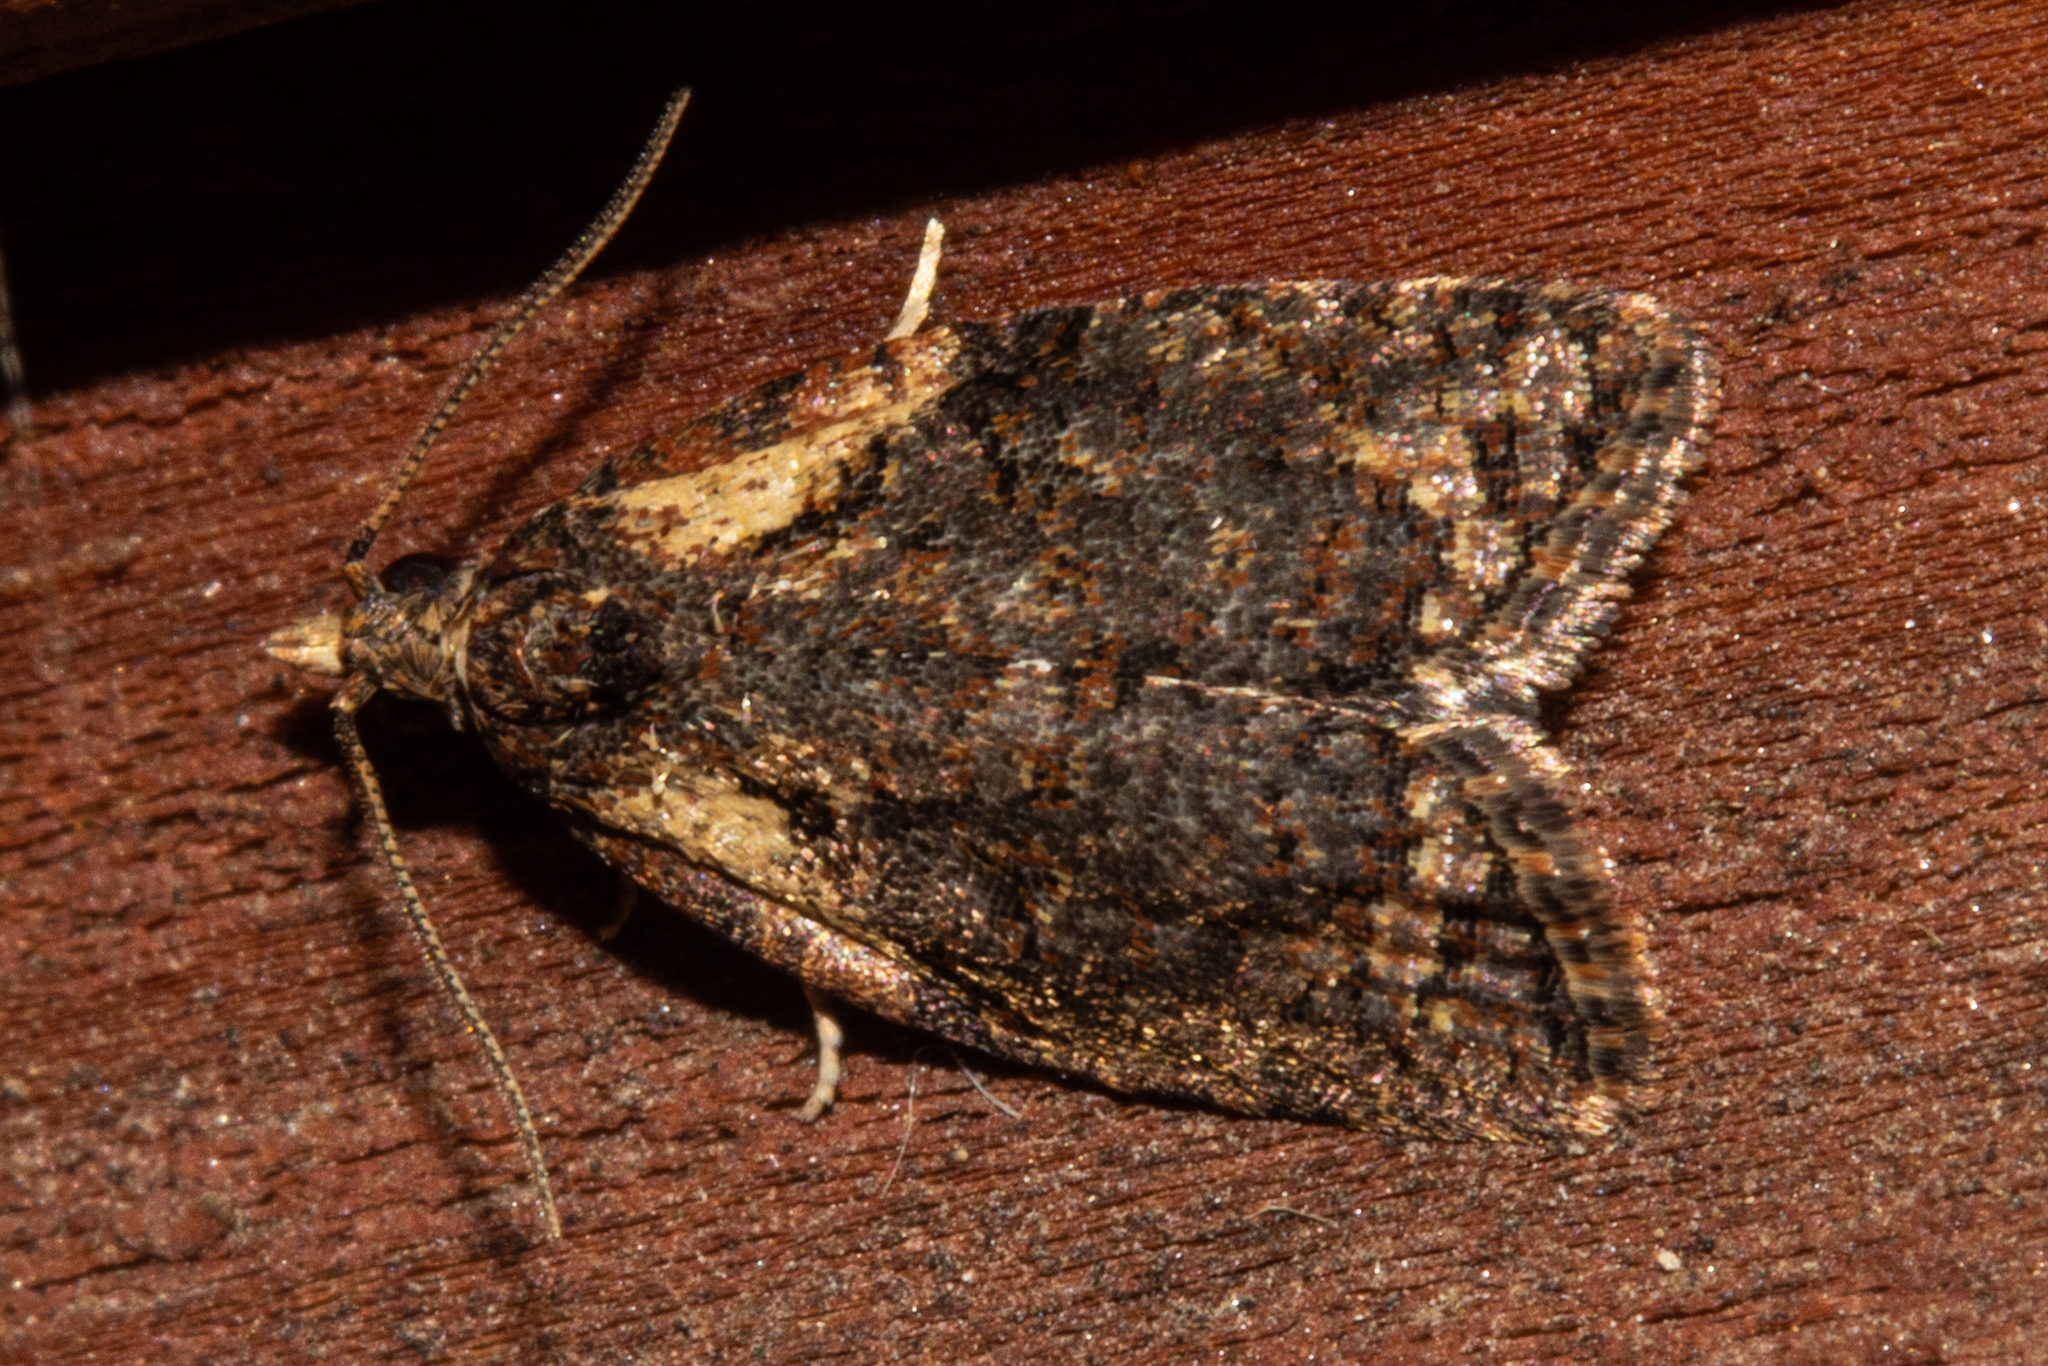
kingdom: Animalia
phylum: Arthropoda
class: Insecta
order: Lepidoptera
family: Tortricidae
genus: Capua
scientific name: Capua intractana
